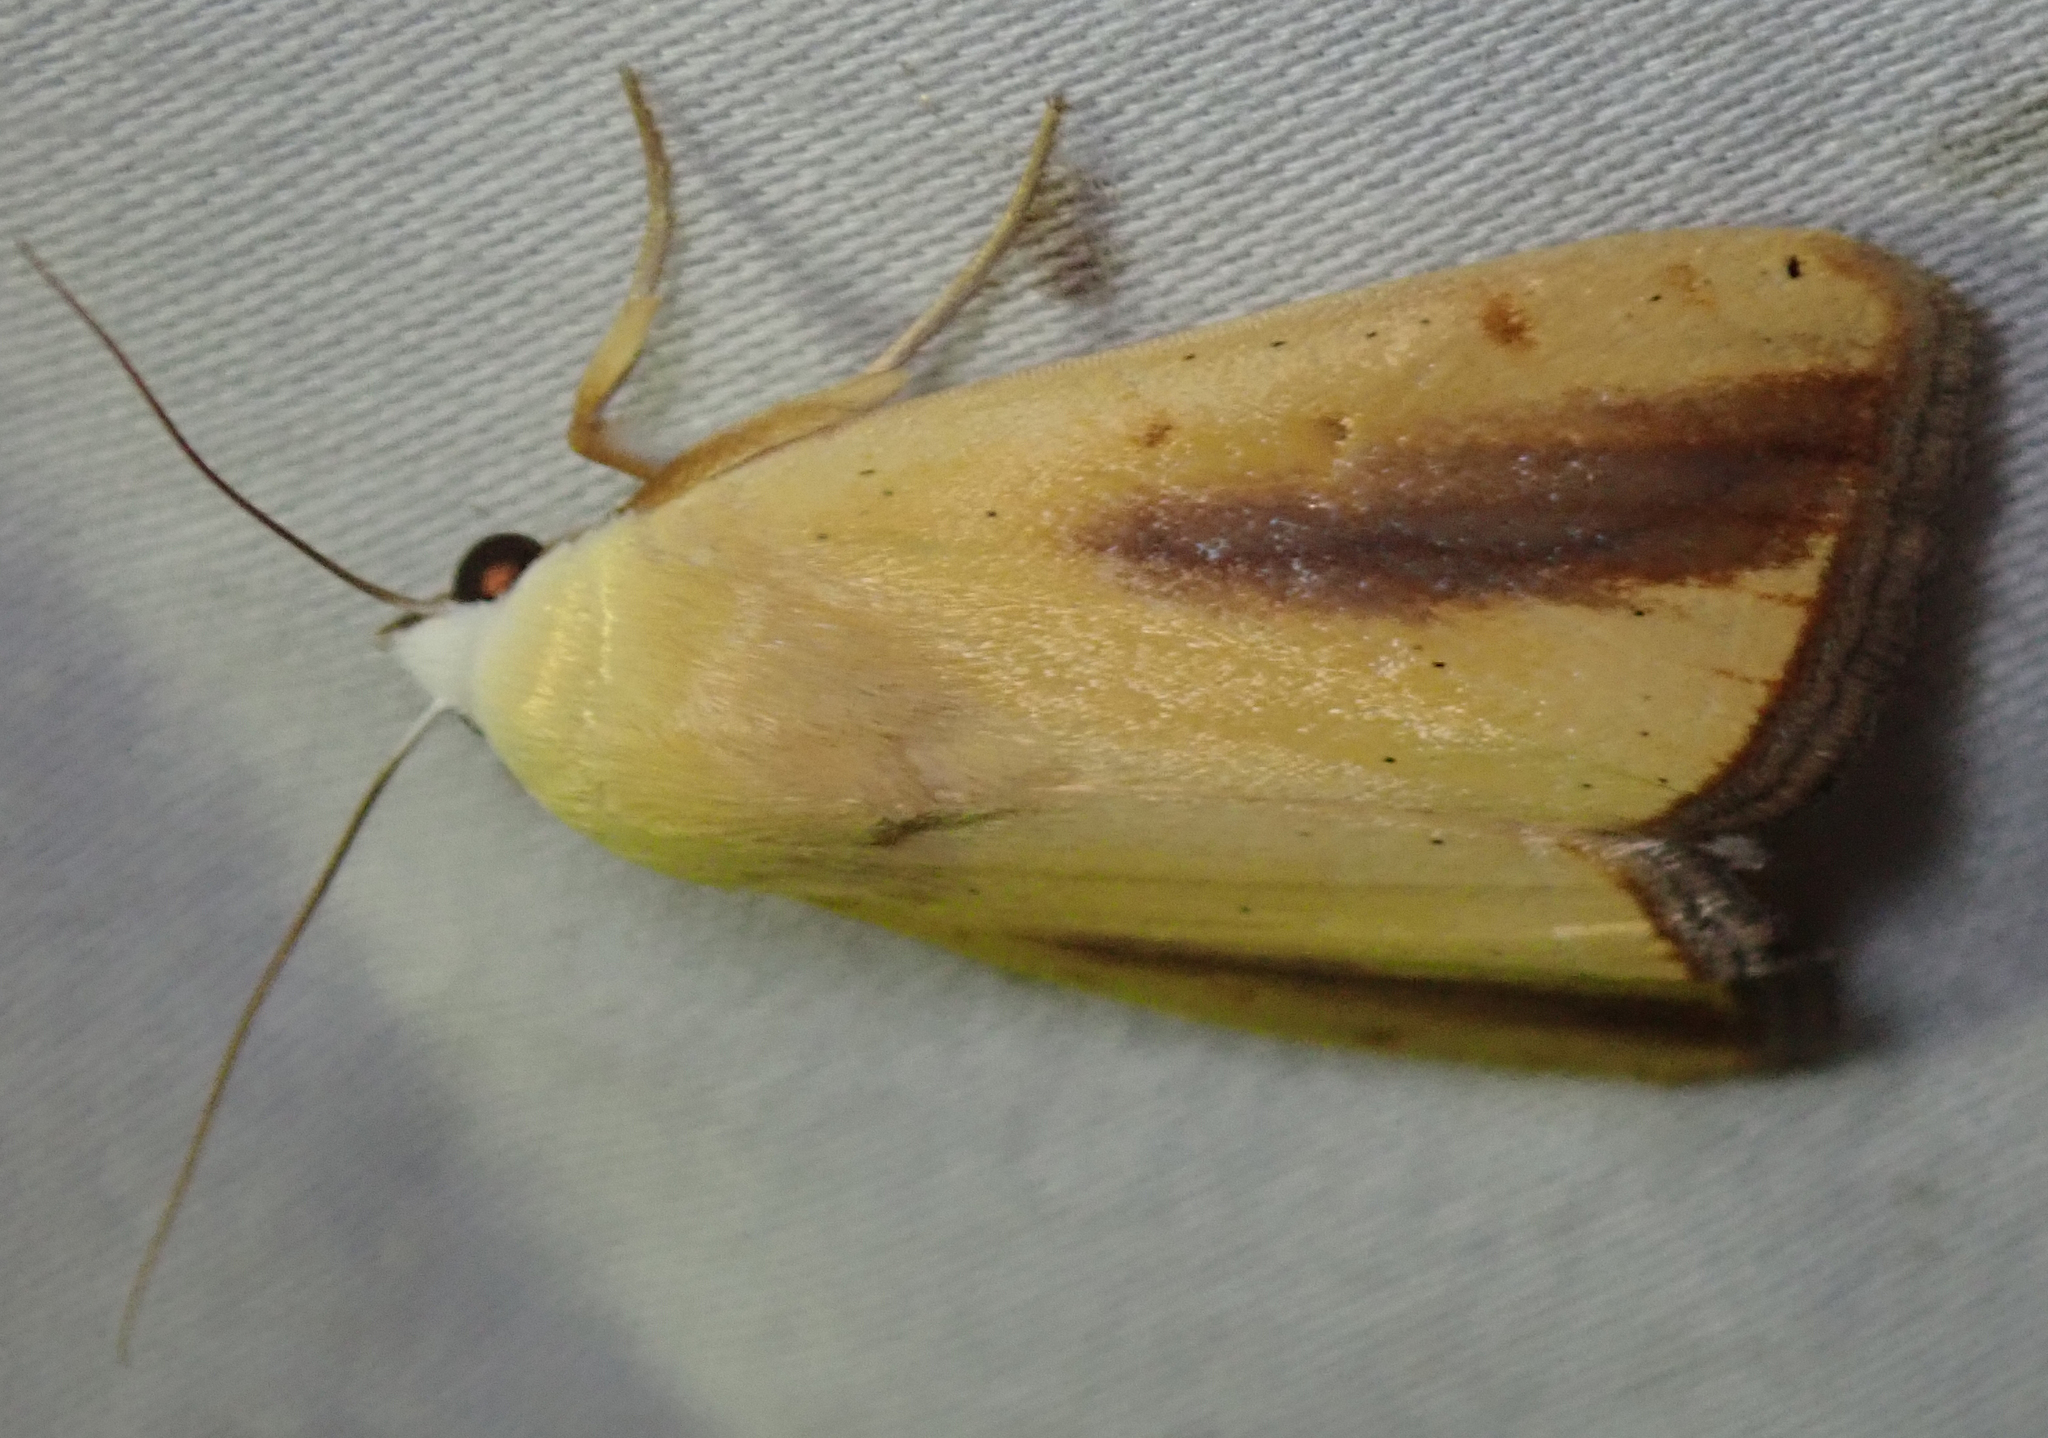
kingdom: Animalia
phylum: Arthropoda
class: Insecta
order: Lepidoptera
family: Nolidae
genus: Pardoxia
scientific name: Pardoxia graellsii
